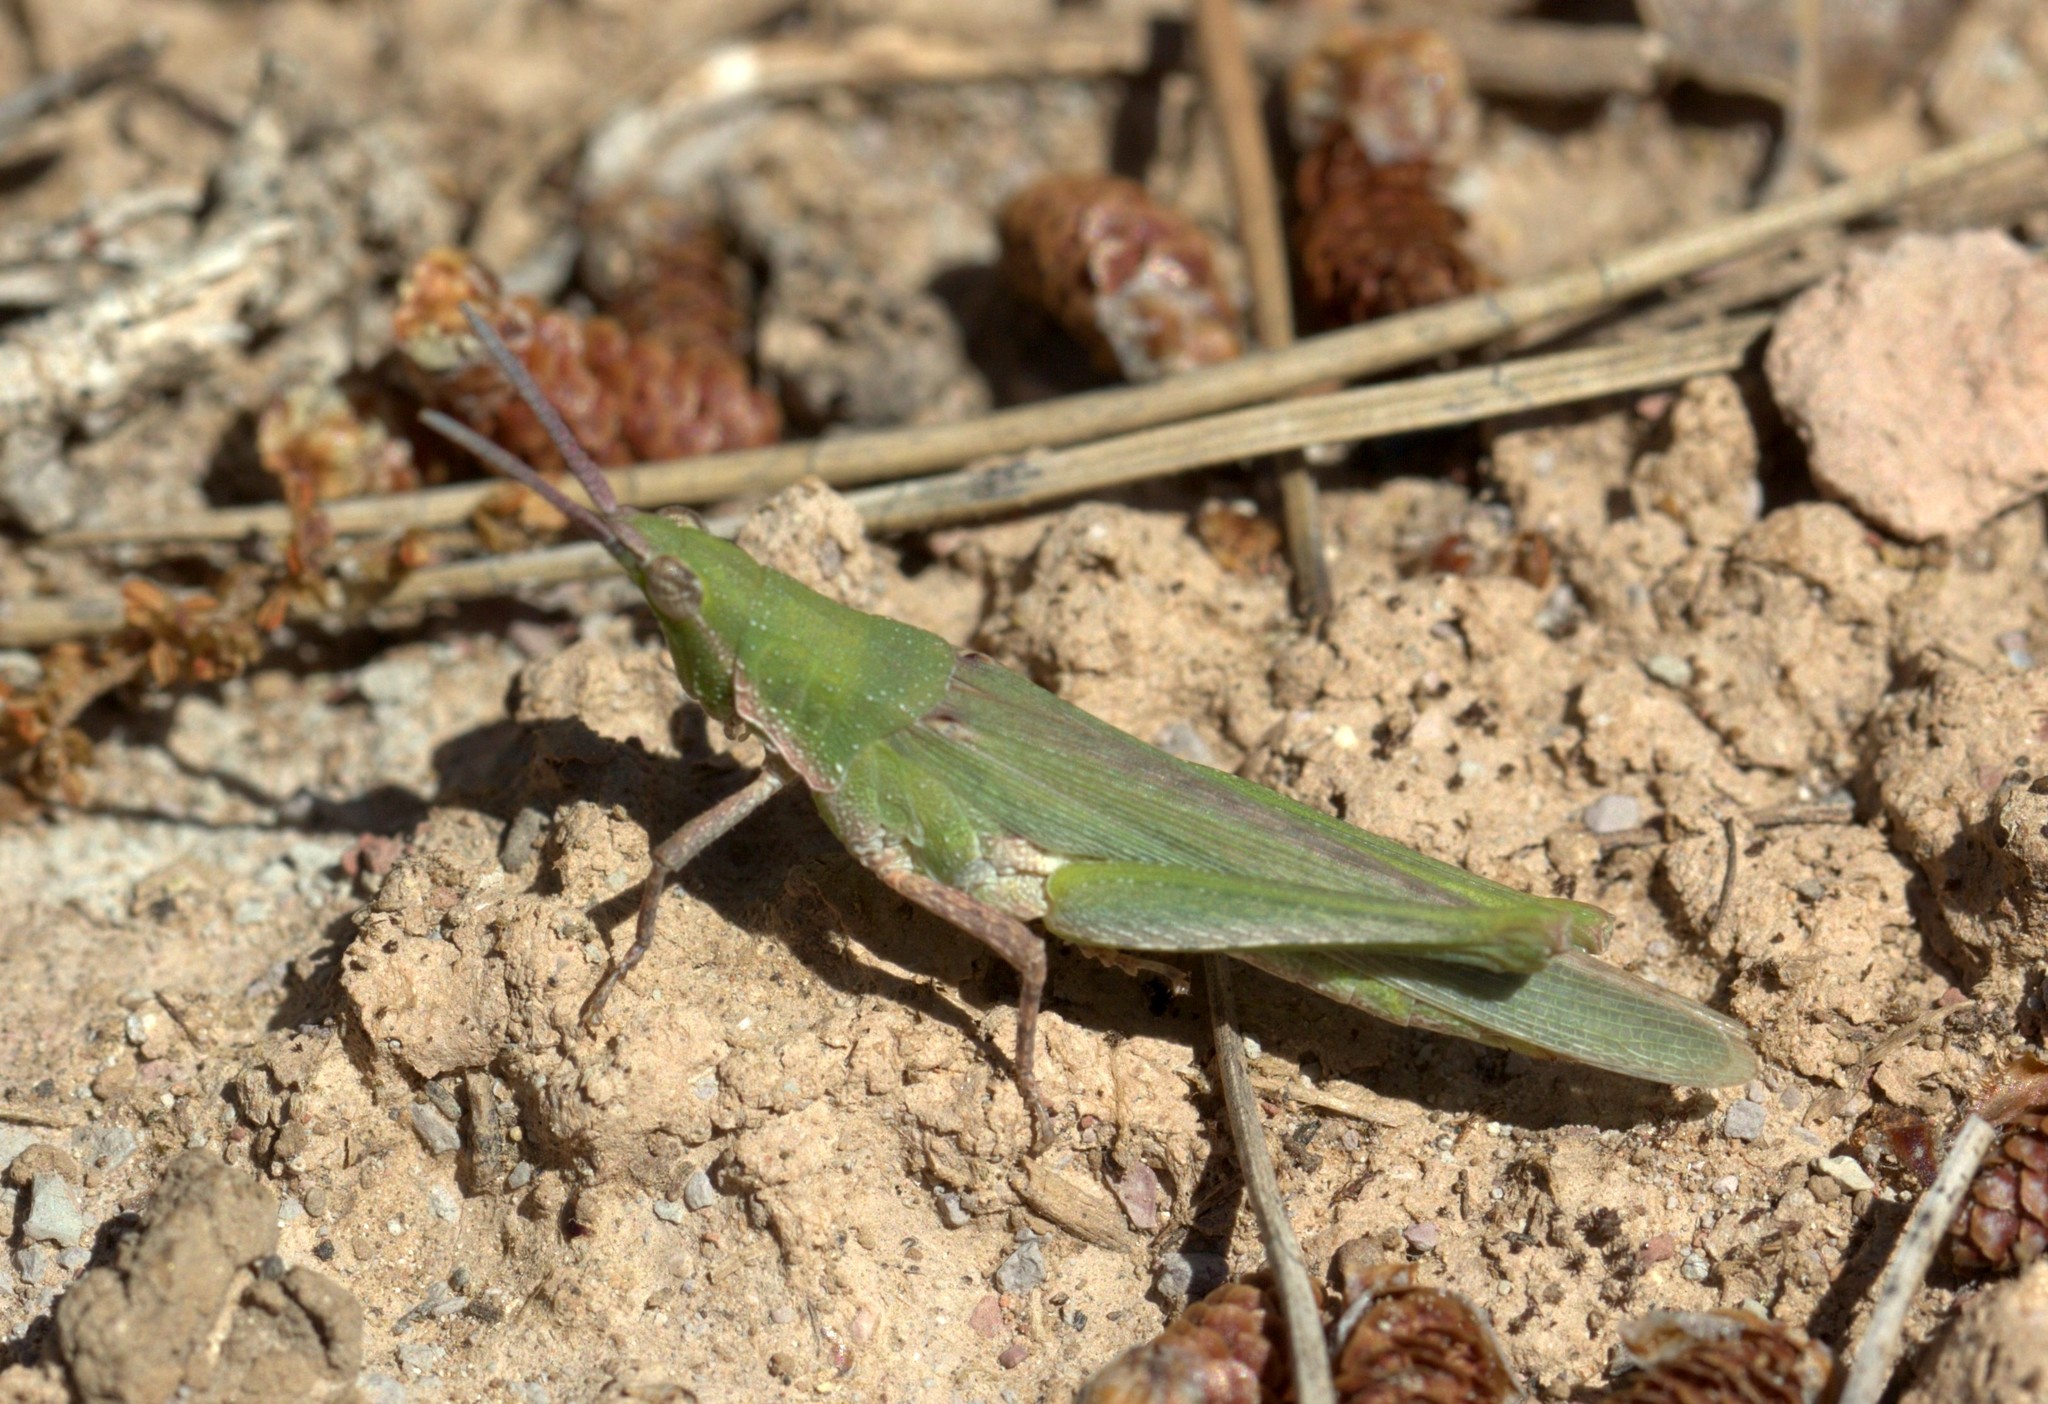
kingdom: Animalia
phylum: Arthropoda
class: Insecta
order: Orthoptera
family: Pyrgomorphidae
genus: Pyrgomorpha
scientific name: Pyrgomorpha conica
